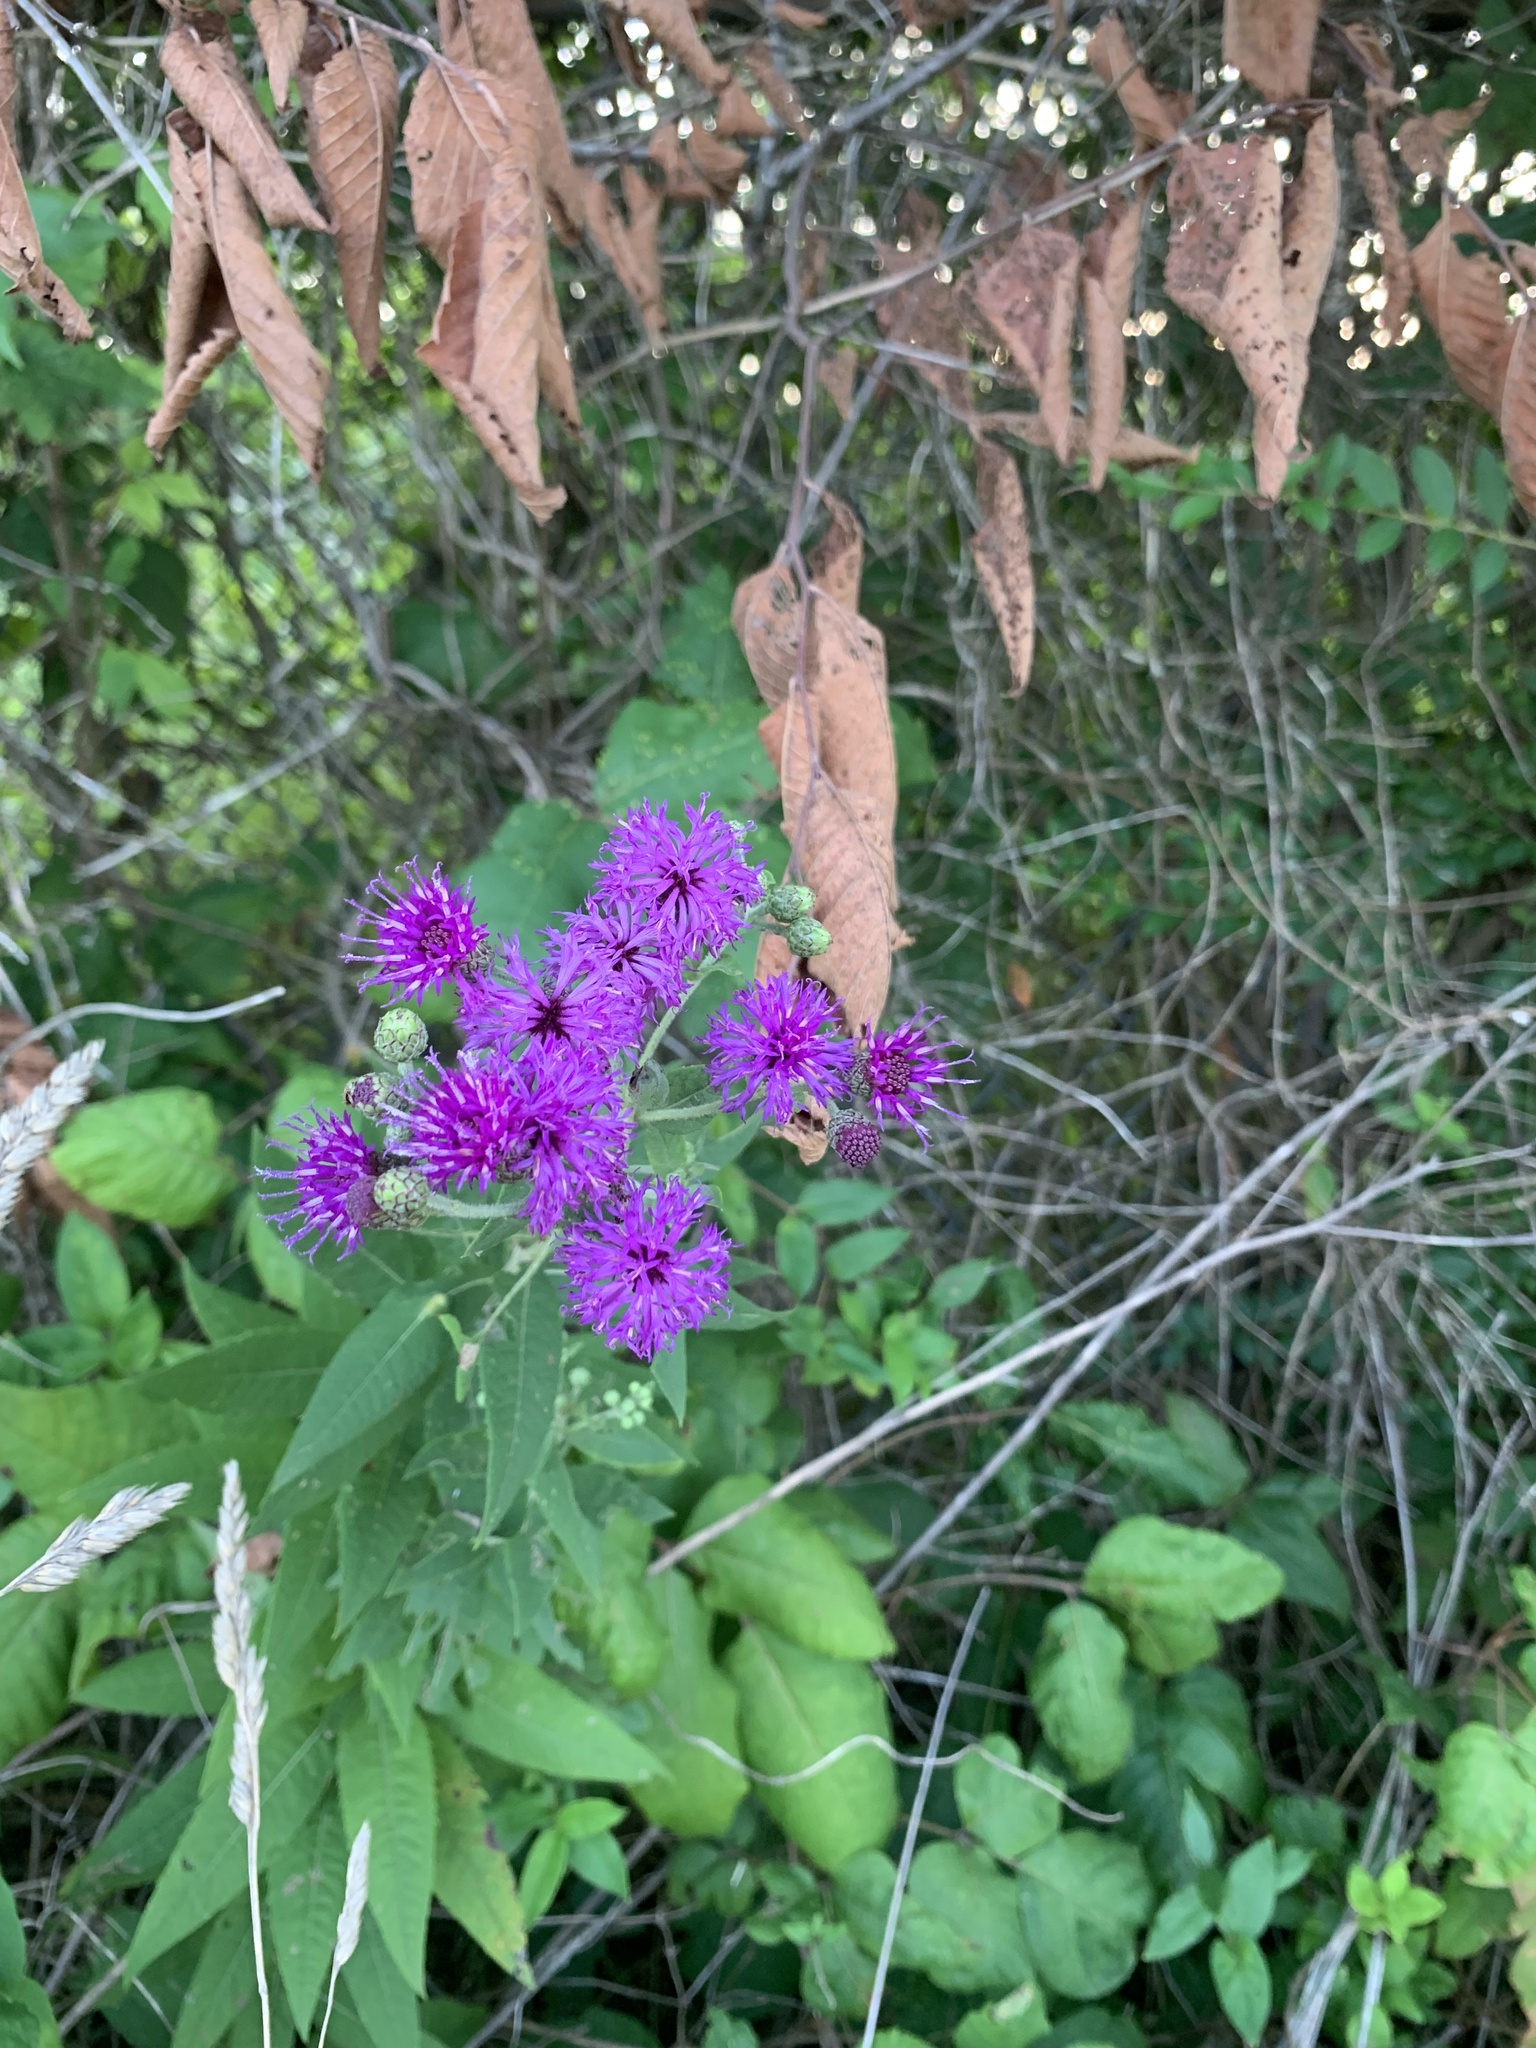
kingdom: Plantae
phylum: Tracheophyta
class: Magnoliopsida
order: Asterales
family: Asteraceae
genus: Vernonia
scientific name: Vernonia missurica
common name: Missouri ironweed
